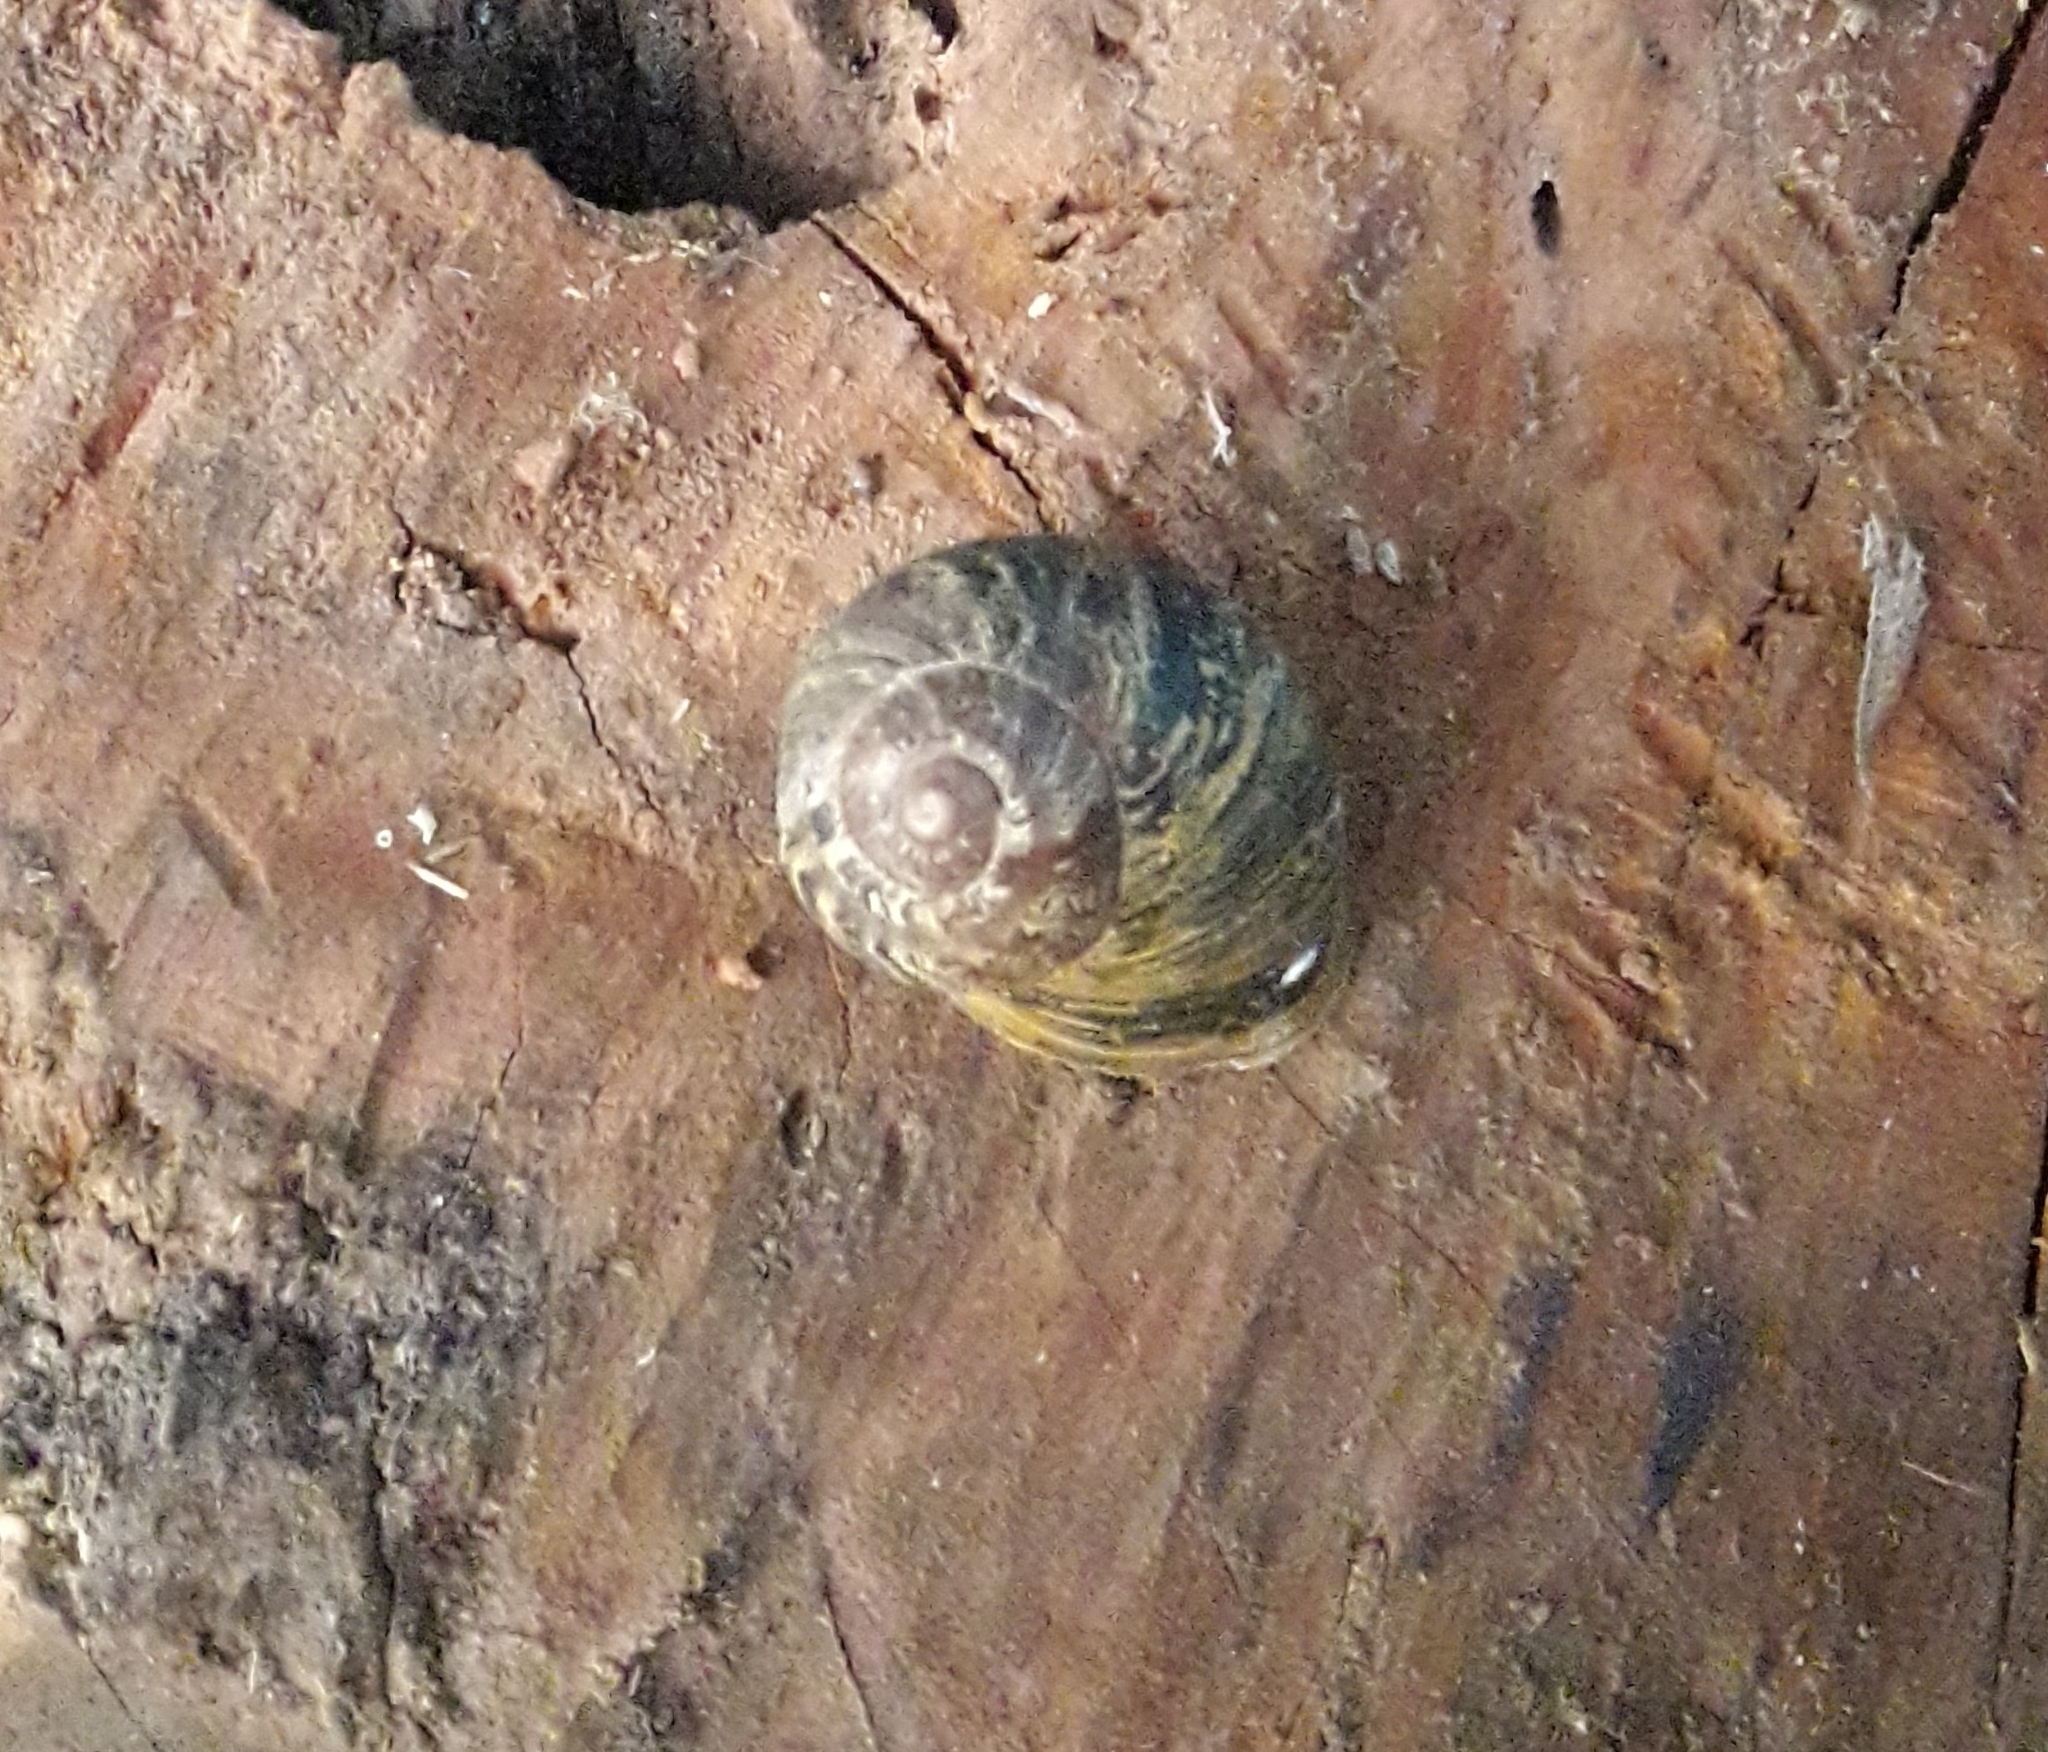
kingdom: Animalia
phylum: Mollusca
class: Gastropoda
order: Stylommatophora
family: Helicidae
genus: Cornu
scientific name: Cornu aspersum
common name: Brown garden snail
